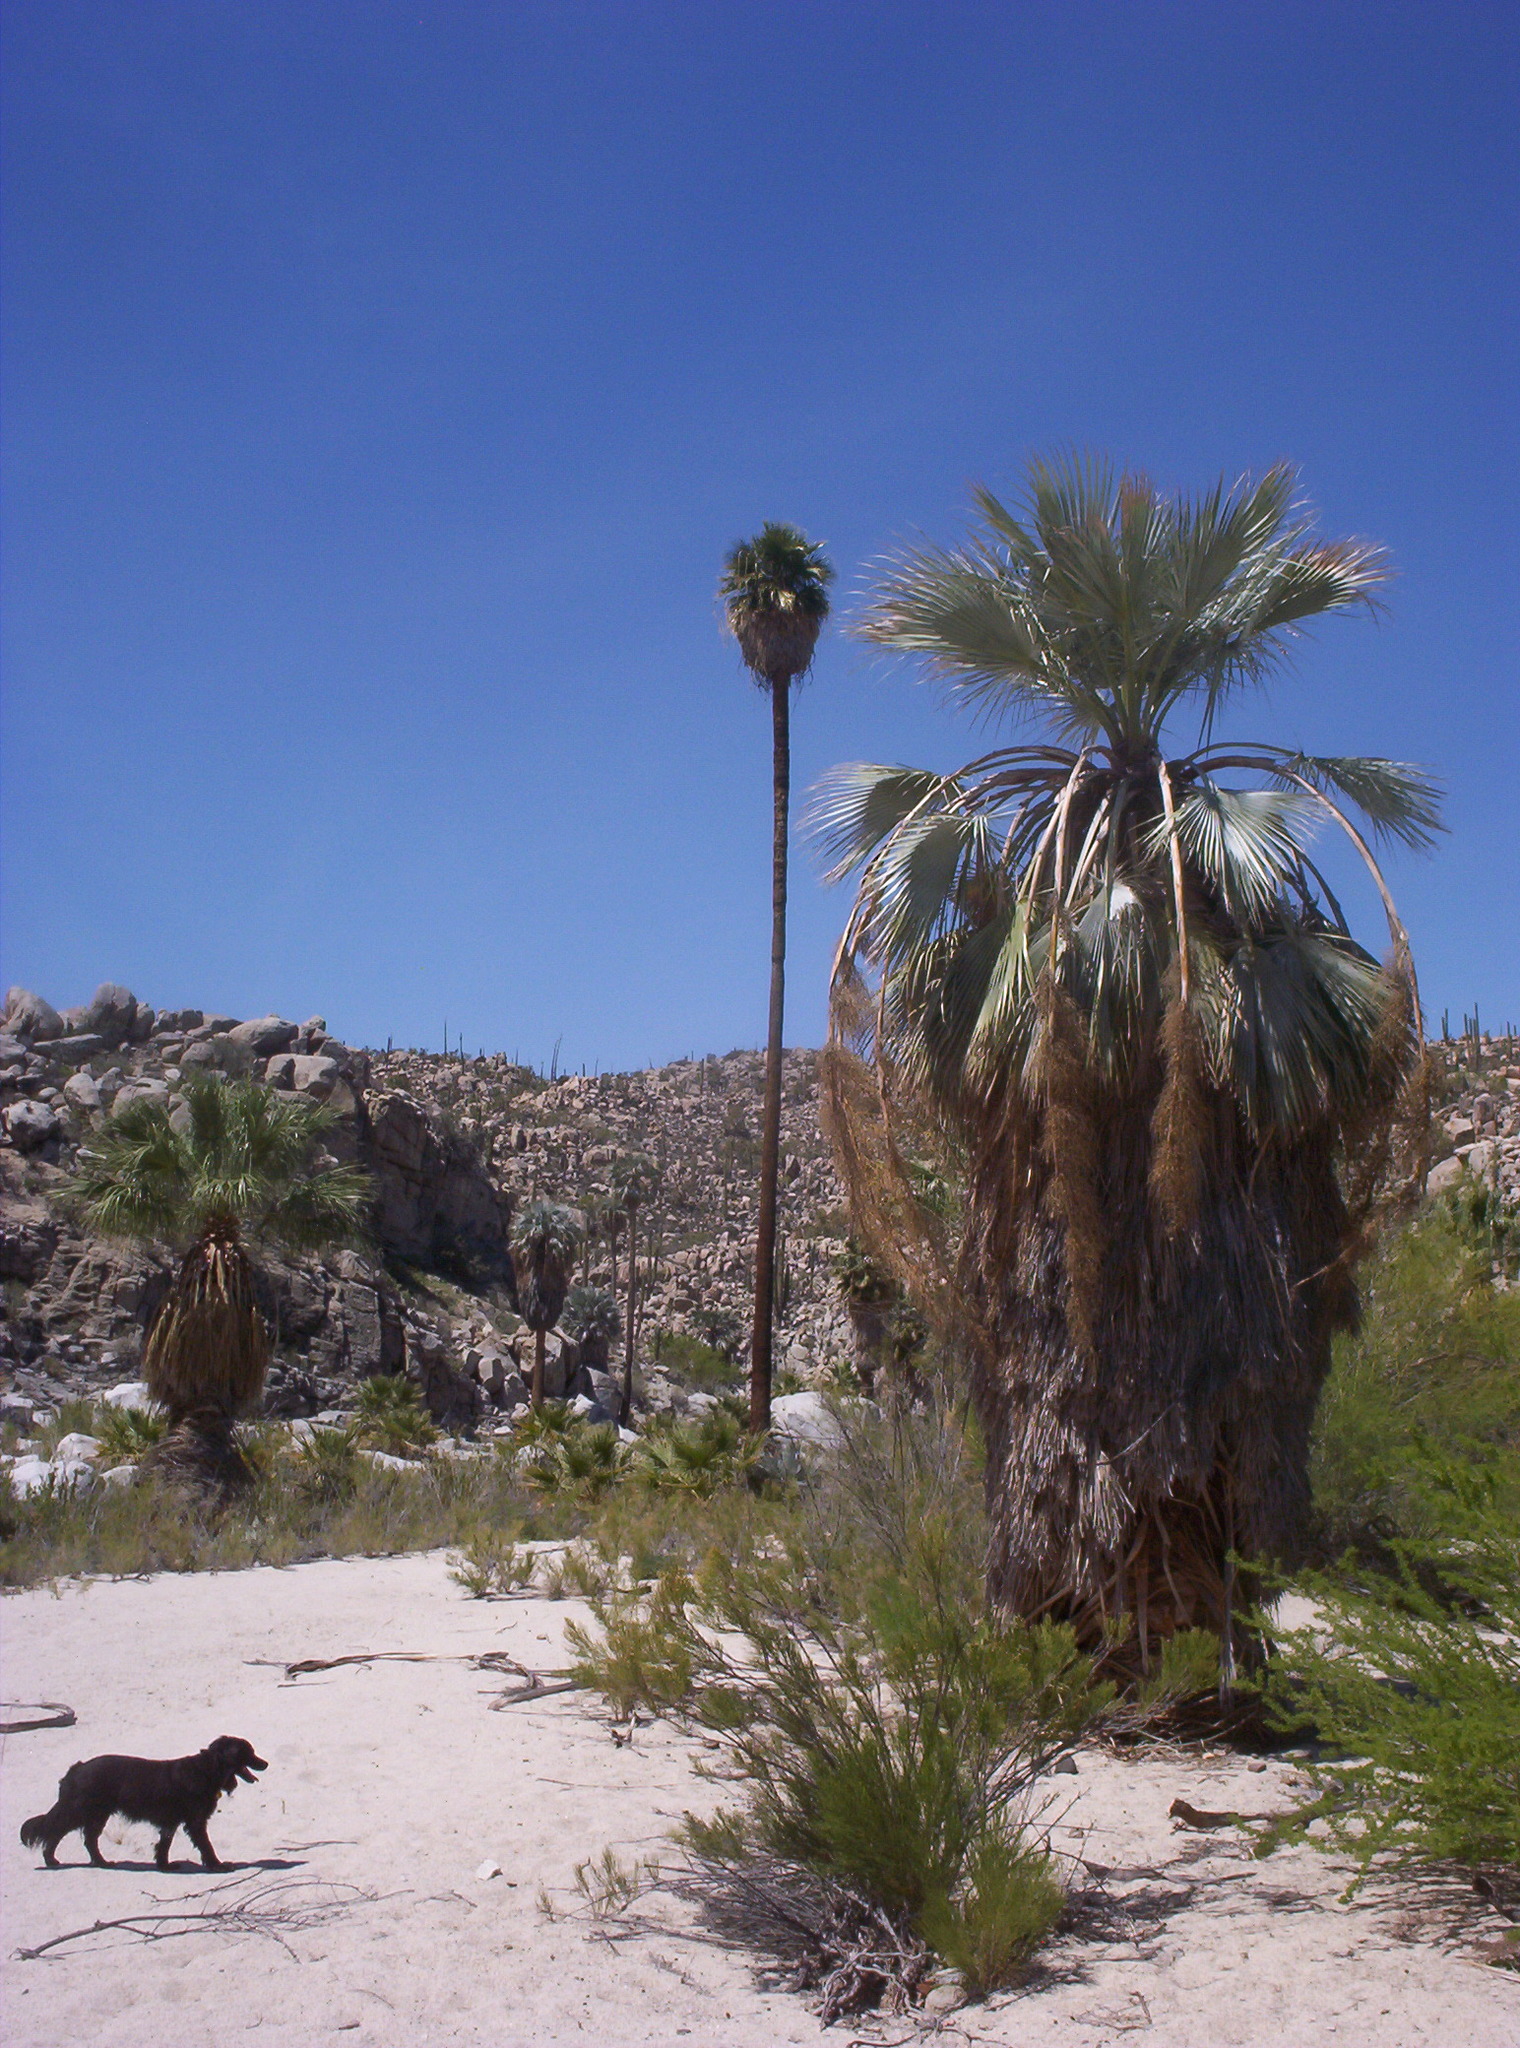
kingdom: Plantae
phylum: Tracheophyta
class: Liliopsida
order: Arecales
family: Arecaceae
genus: Brahea
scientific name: Brahea armata
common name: Mexican blue palm
